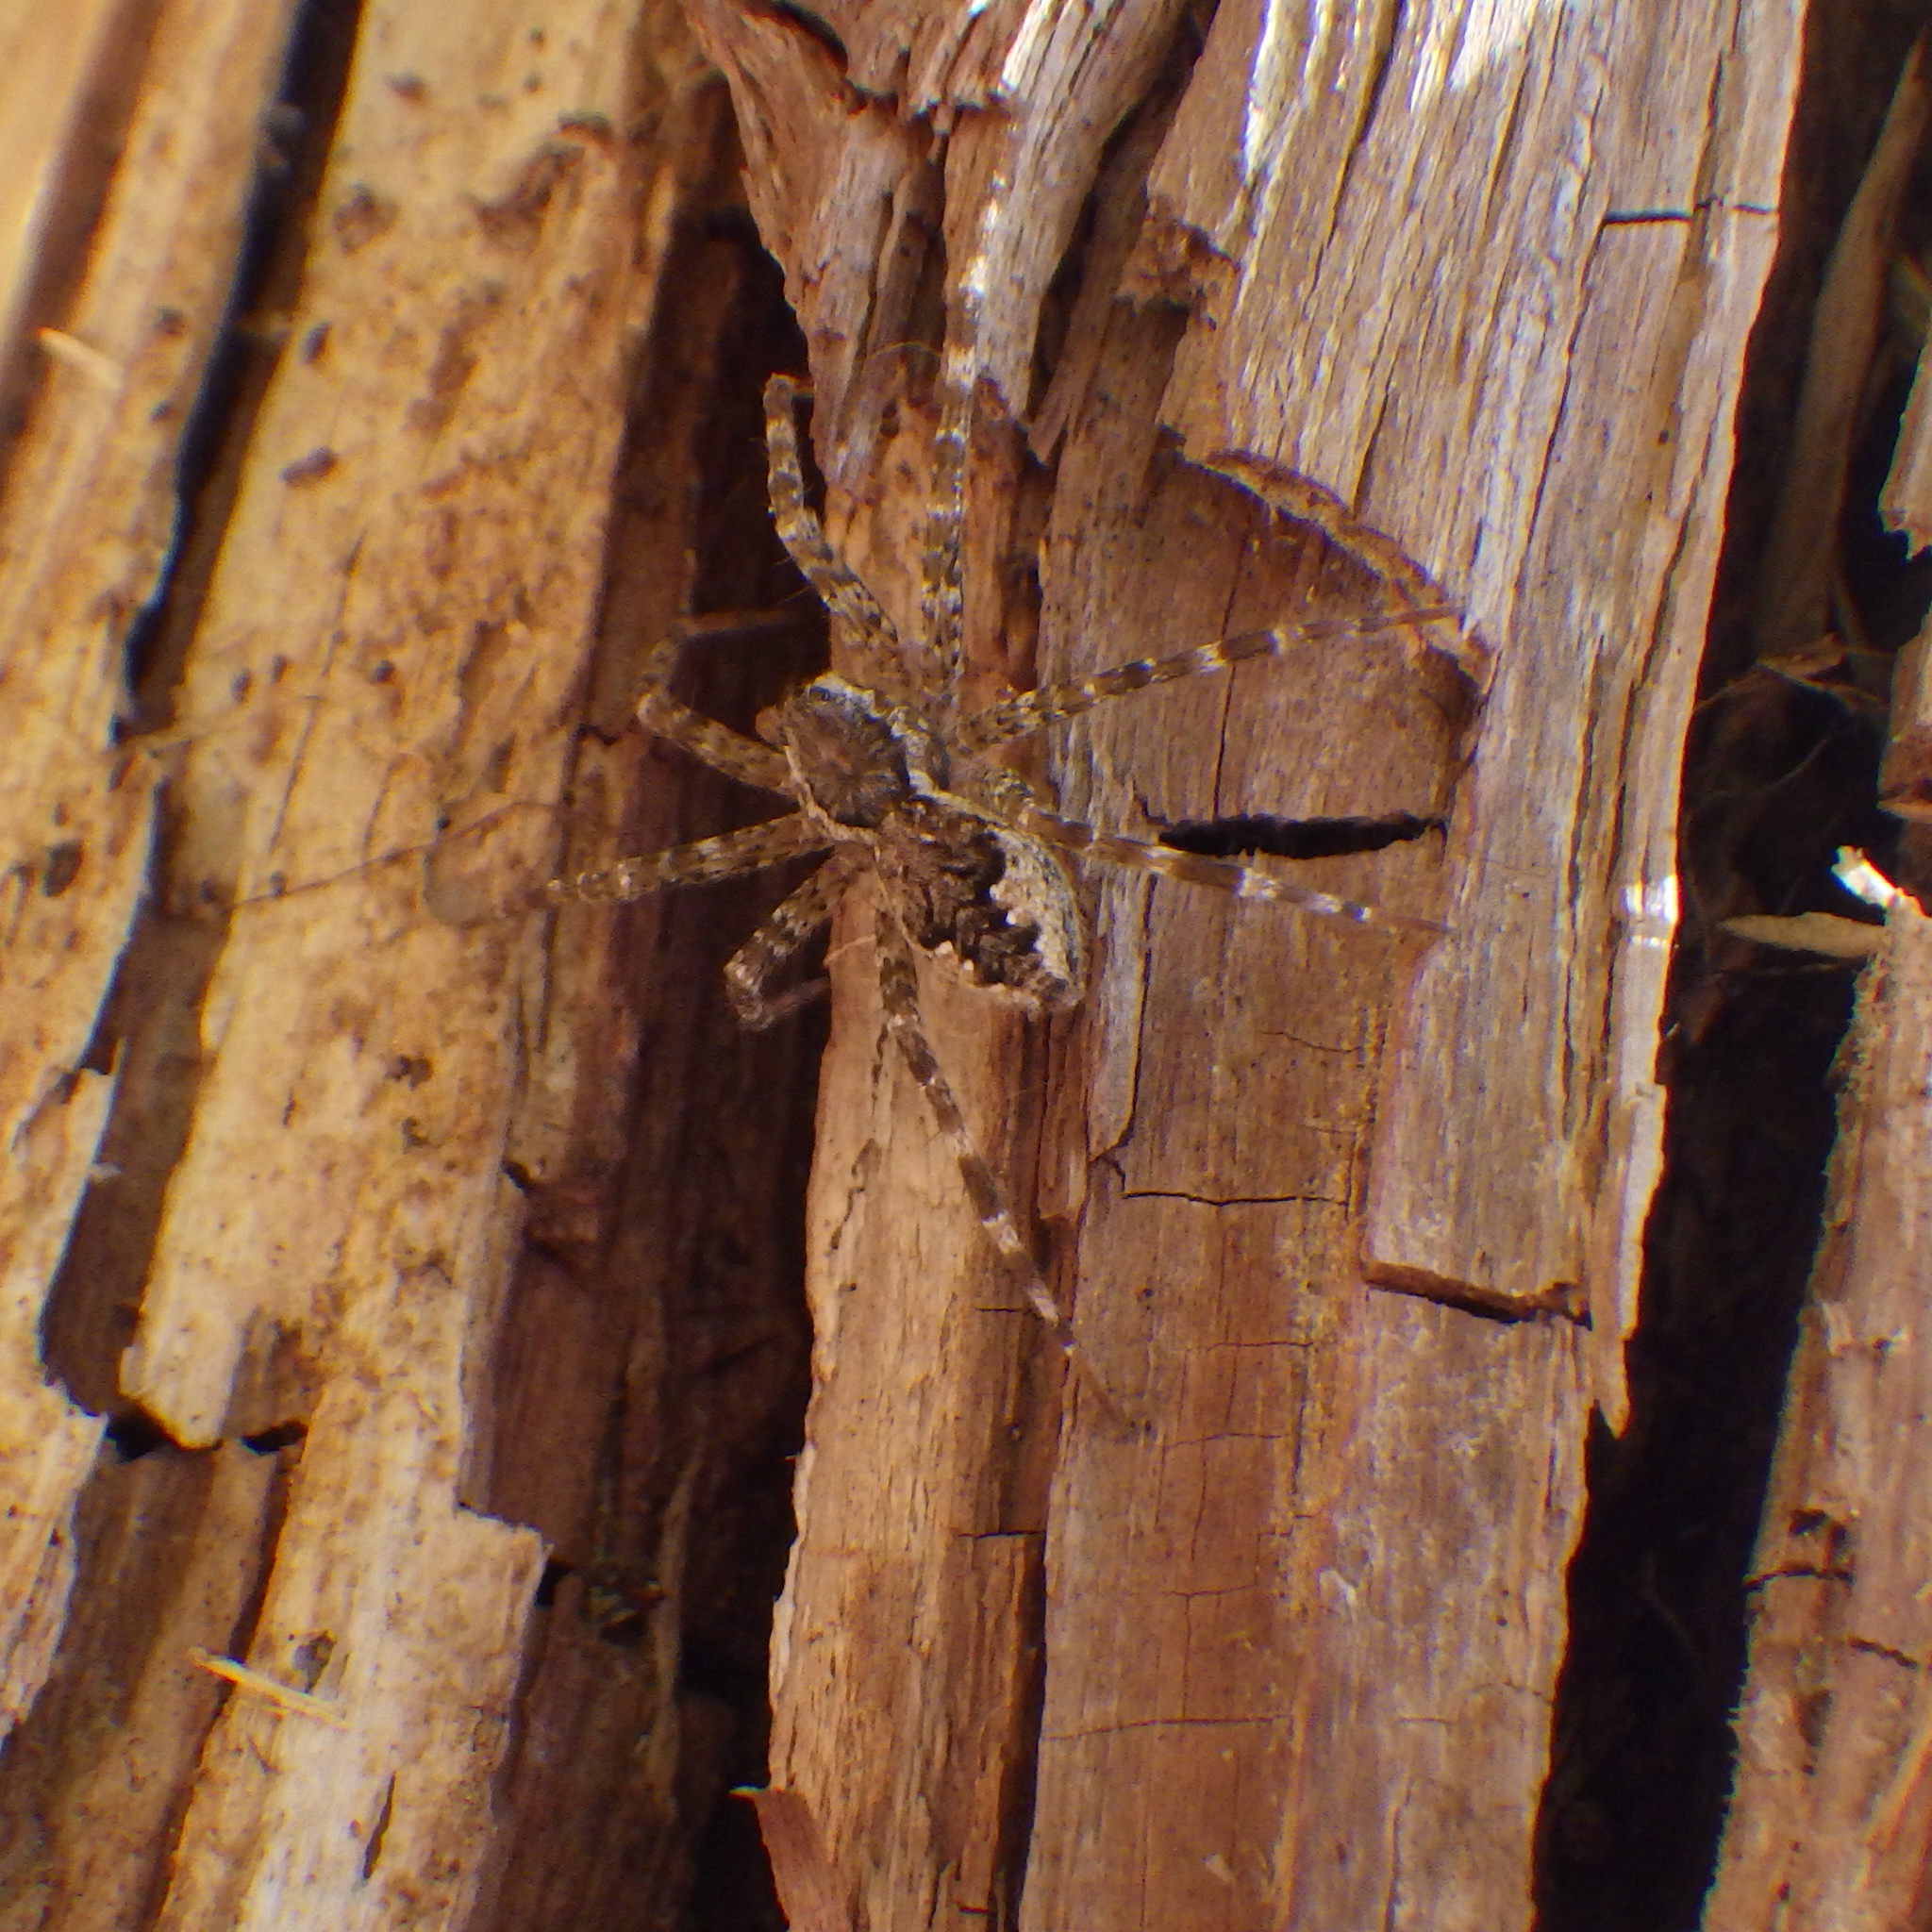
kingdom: Animalia
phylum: Arthropoda
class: Arachnida
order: Araneae
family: Pisauridae
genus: Dolomedes
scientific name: Dolomedes tenebrosus
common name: Dark fishing spider
